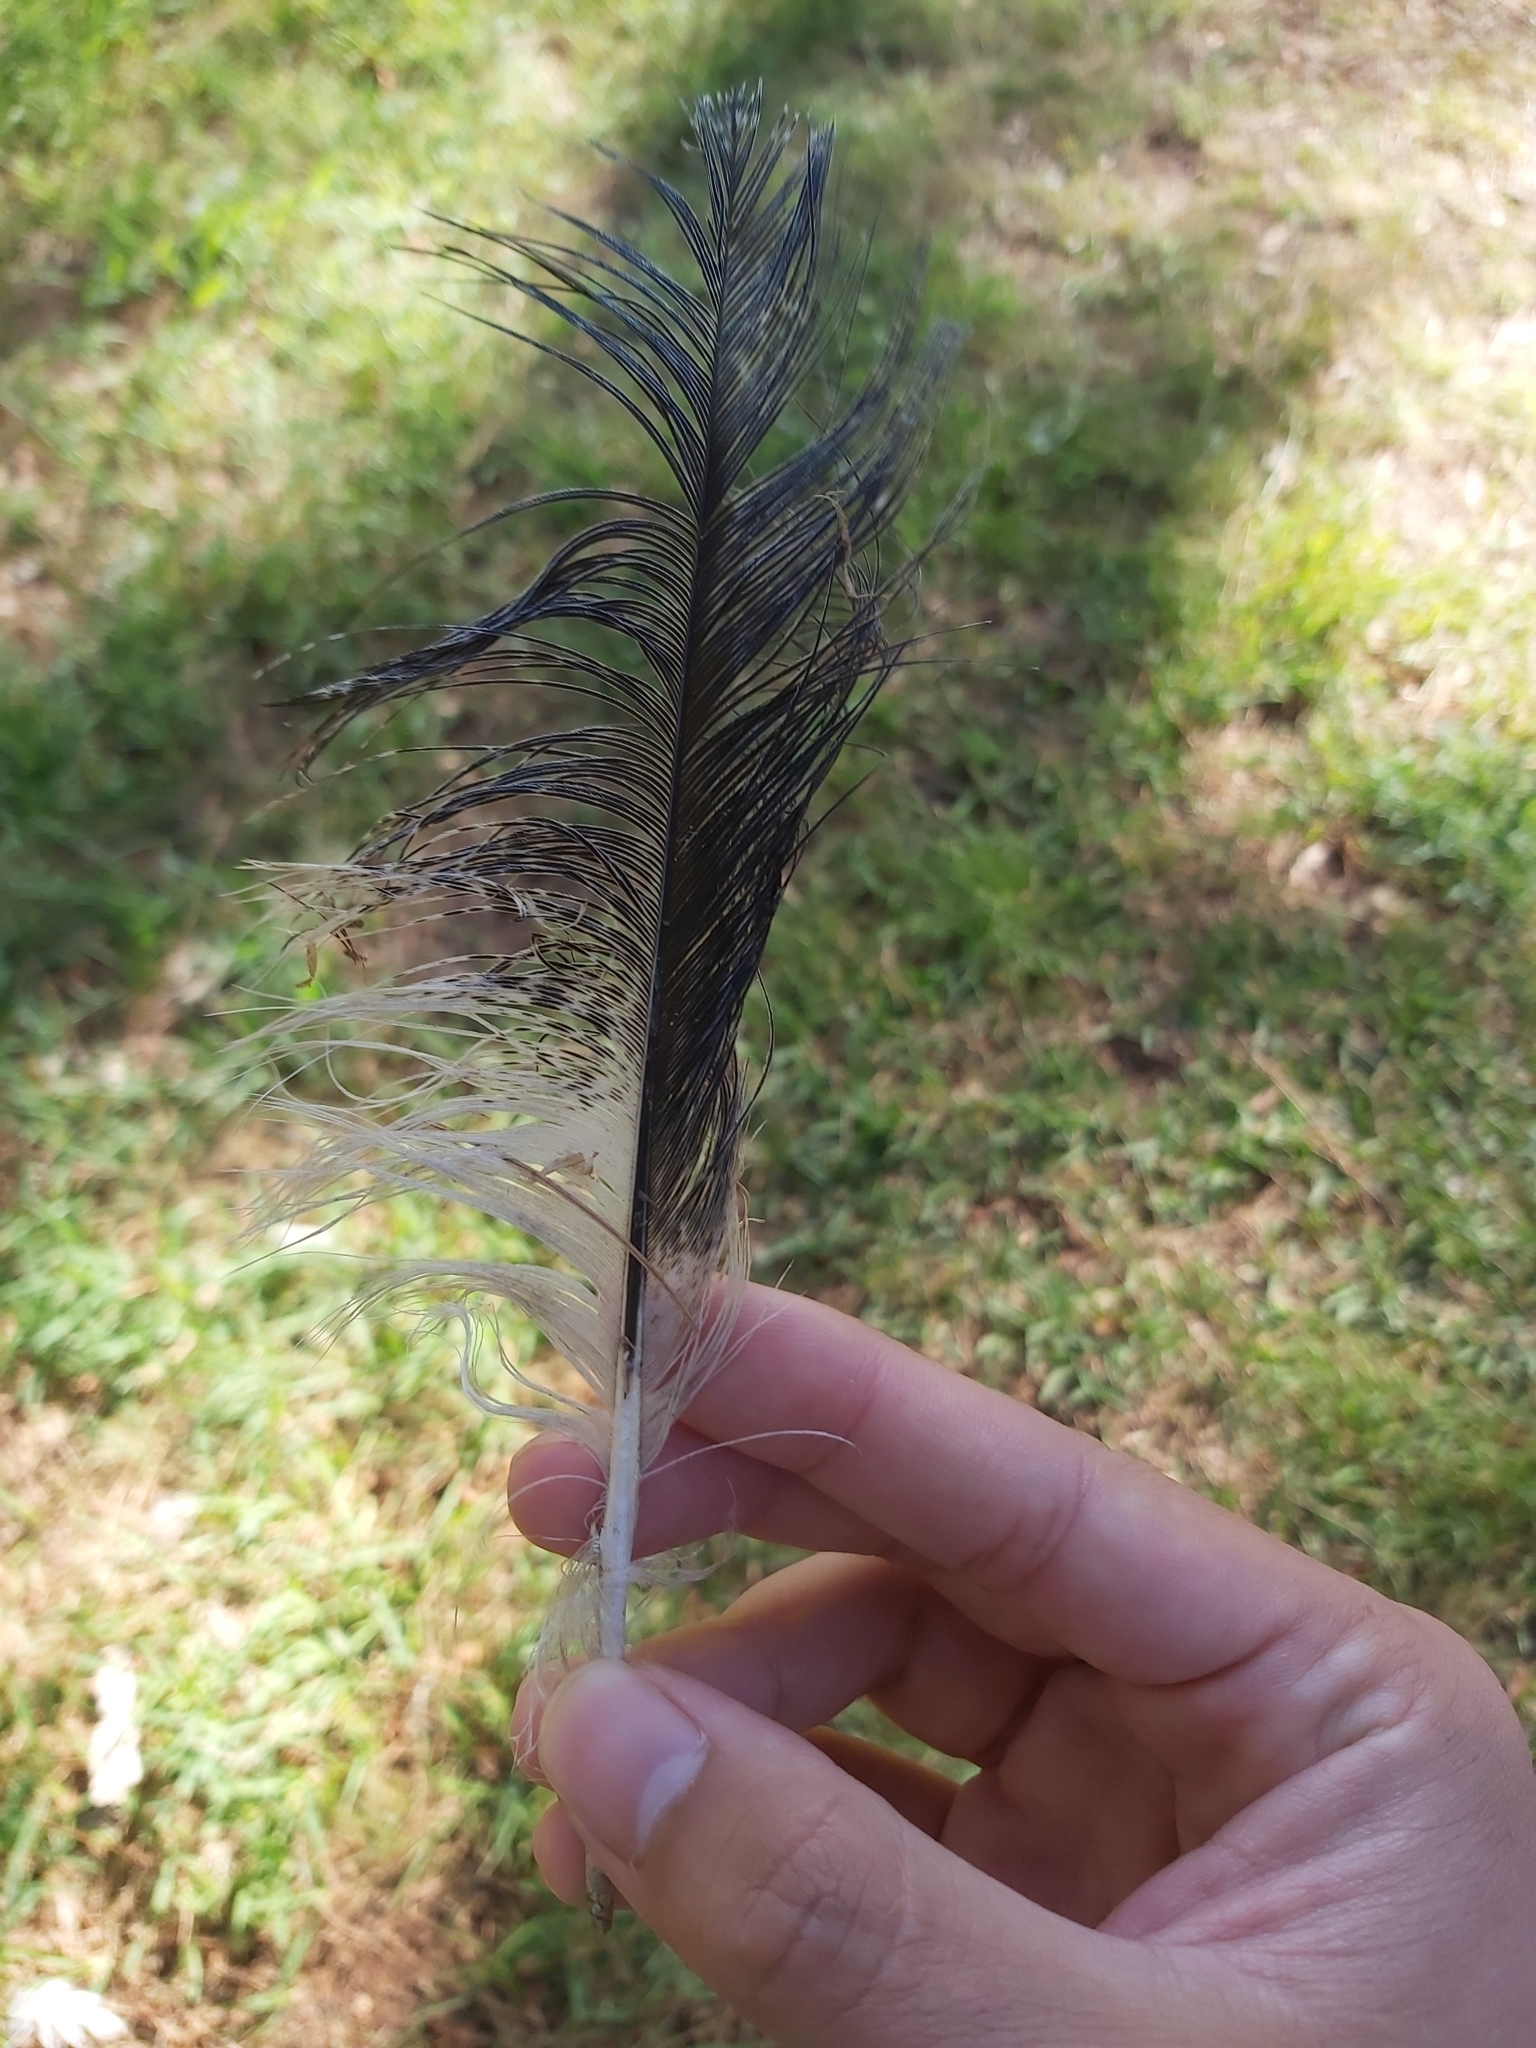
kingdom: Animalia
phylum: Chordata
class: Aves
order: Pelecaniformes
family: Threskiornithidae
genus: Threskiornis
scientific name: Threskiornis molucca
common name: Australian white ibis
